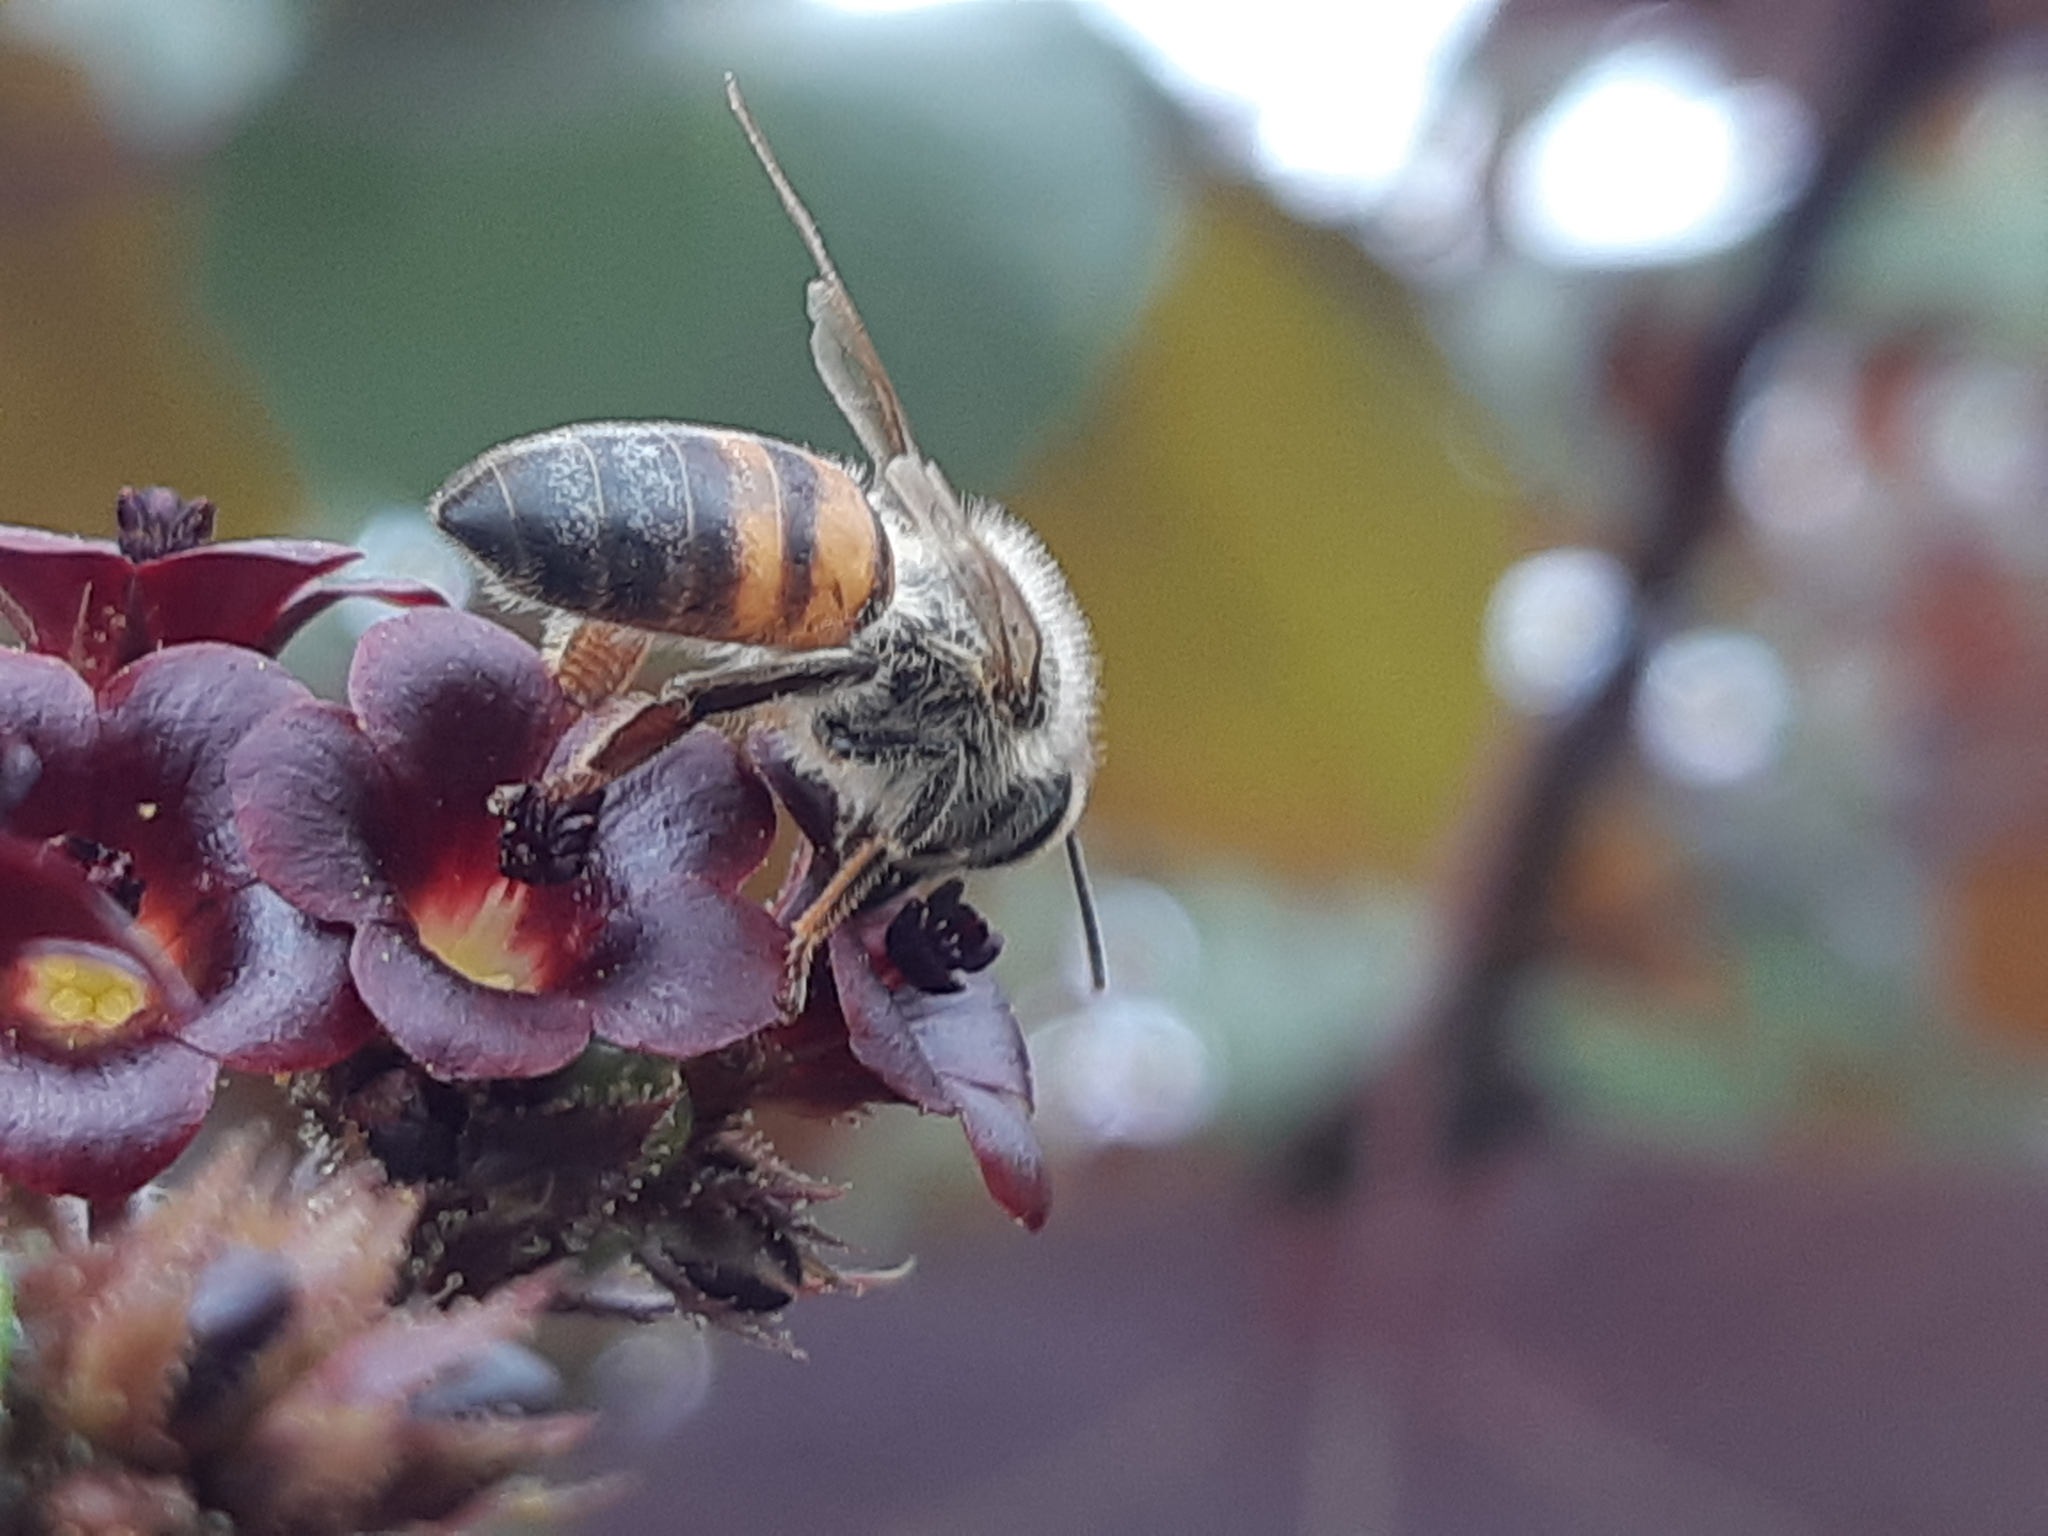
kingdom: Animalia
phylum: Arthropoda
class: Insecta
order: Hymenoptera
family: Apidae
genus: Apis
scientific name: Apis mellifera
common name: Honey bee
